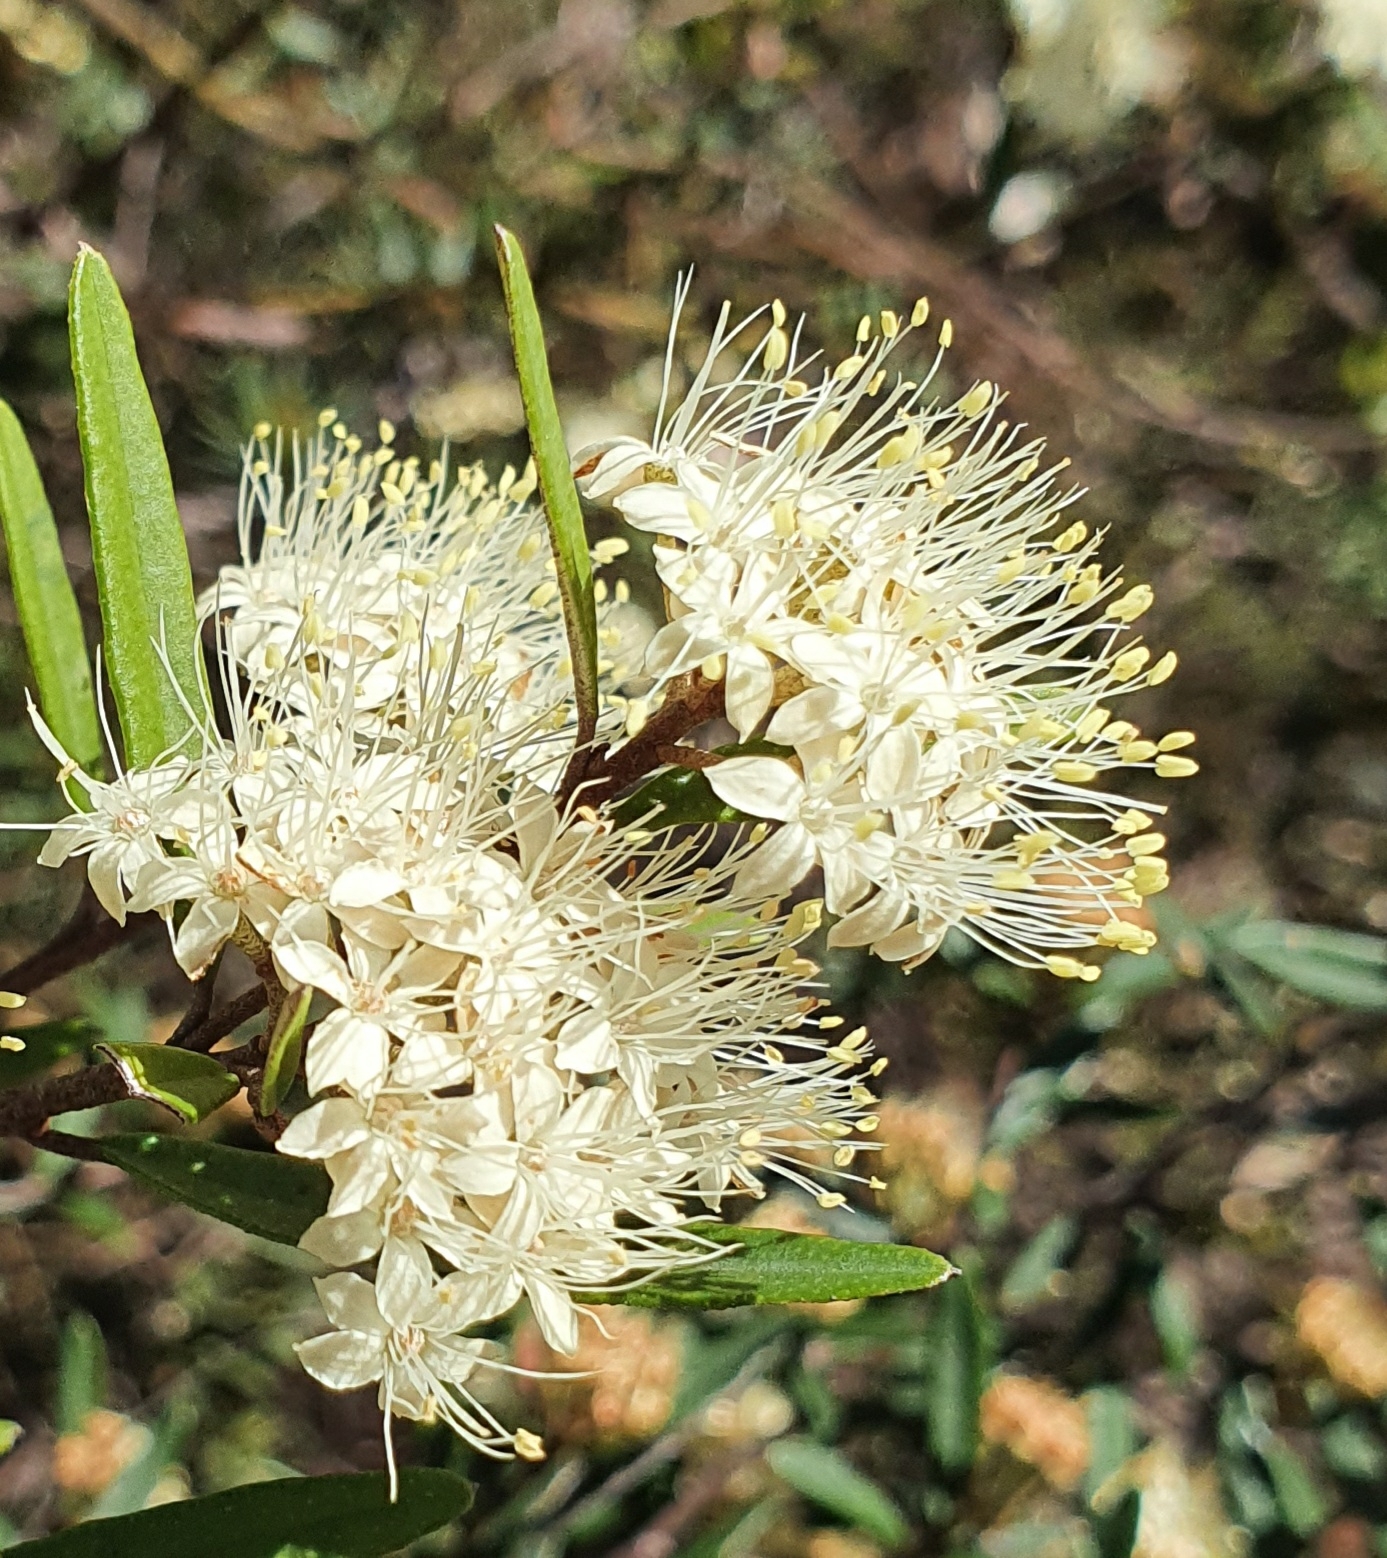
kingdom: Plantae
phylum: Tracheophyta
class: Magnoliopsida
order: Sapindales
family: Rutaceae
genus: Phebalium
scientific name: Phebalium squamulosum
